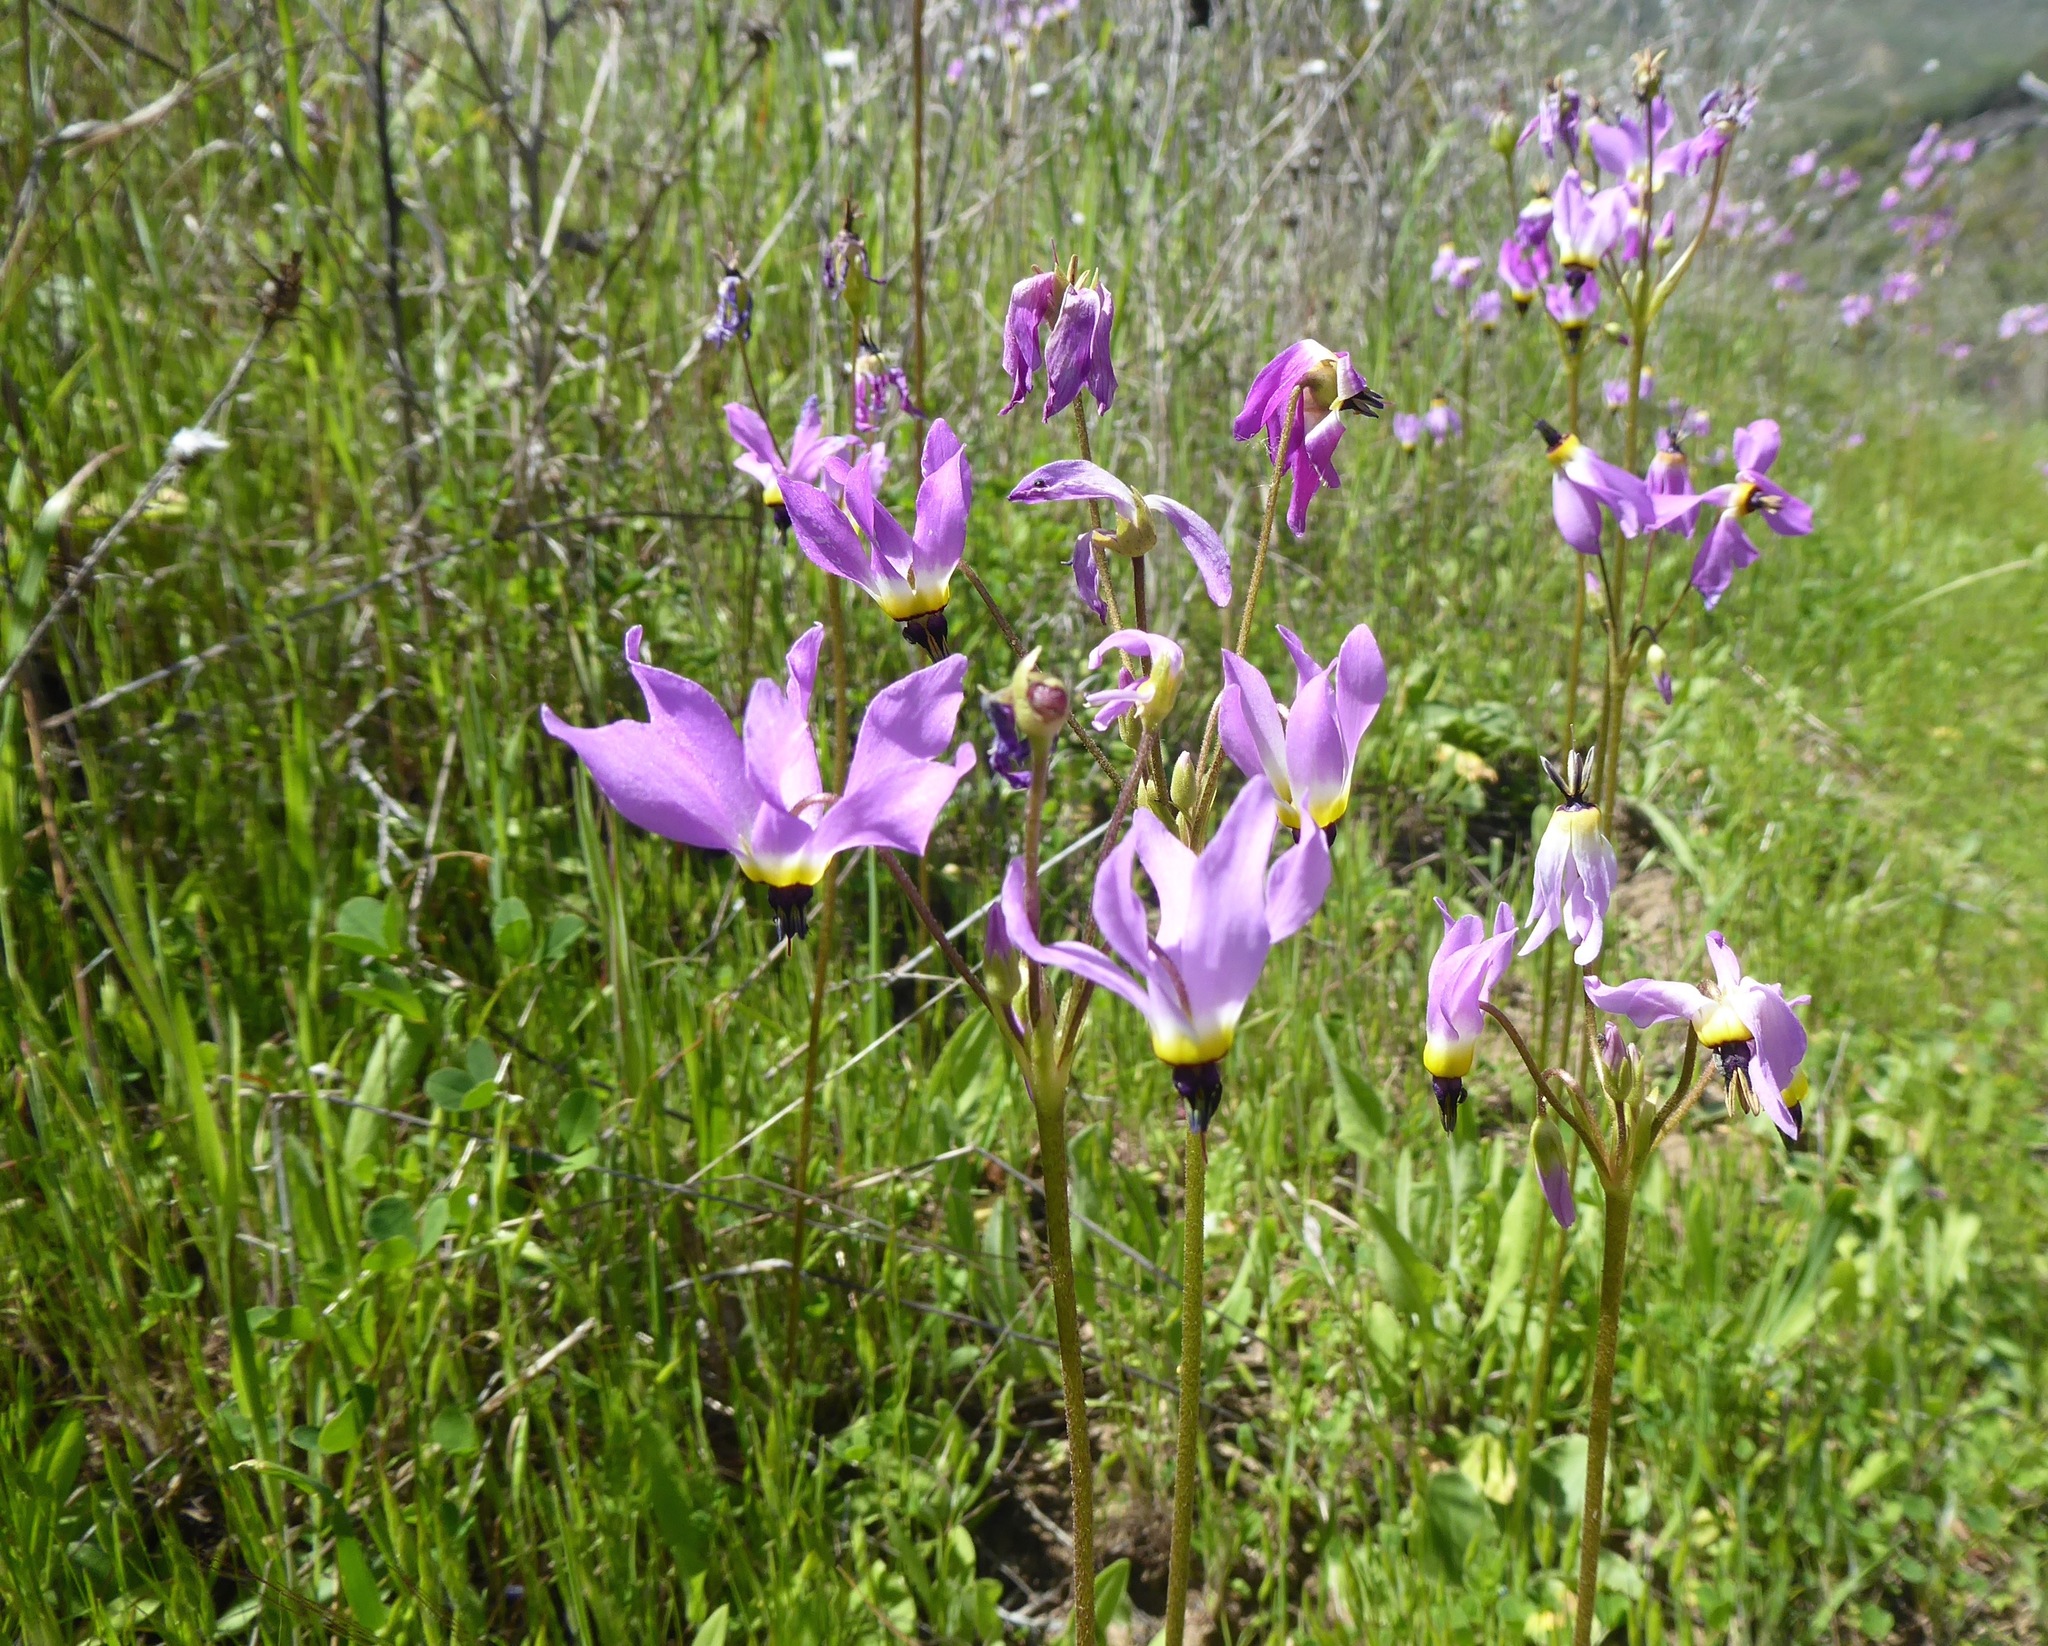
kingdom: Plantae
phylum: Tracheophyta
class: Magnoliopsida
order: Ericales
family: Primulaceae
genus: Dodecatheon
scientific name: Dodecatheon clevelandii
